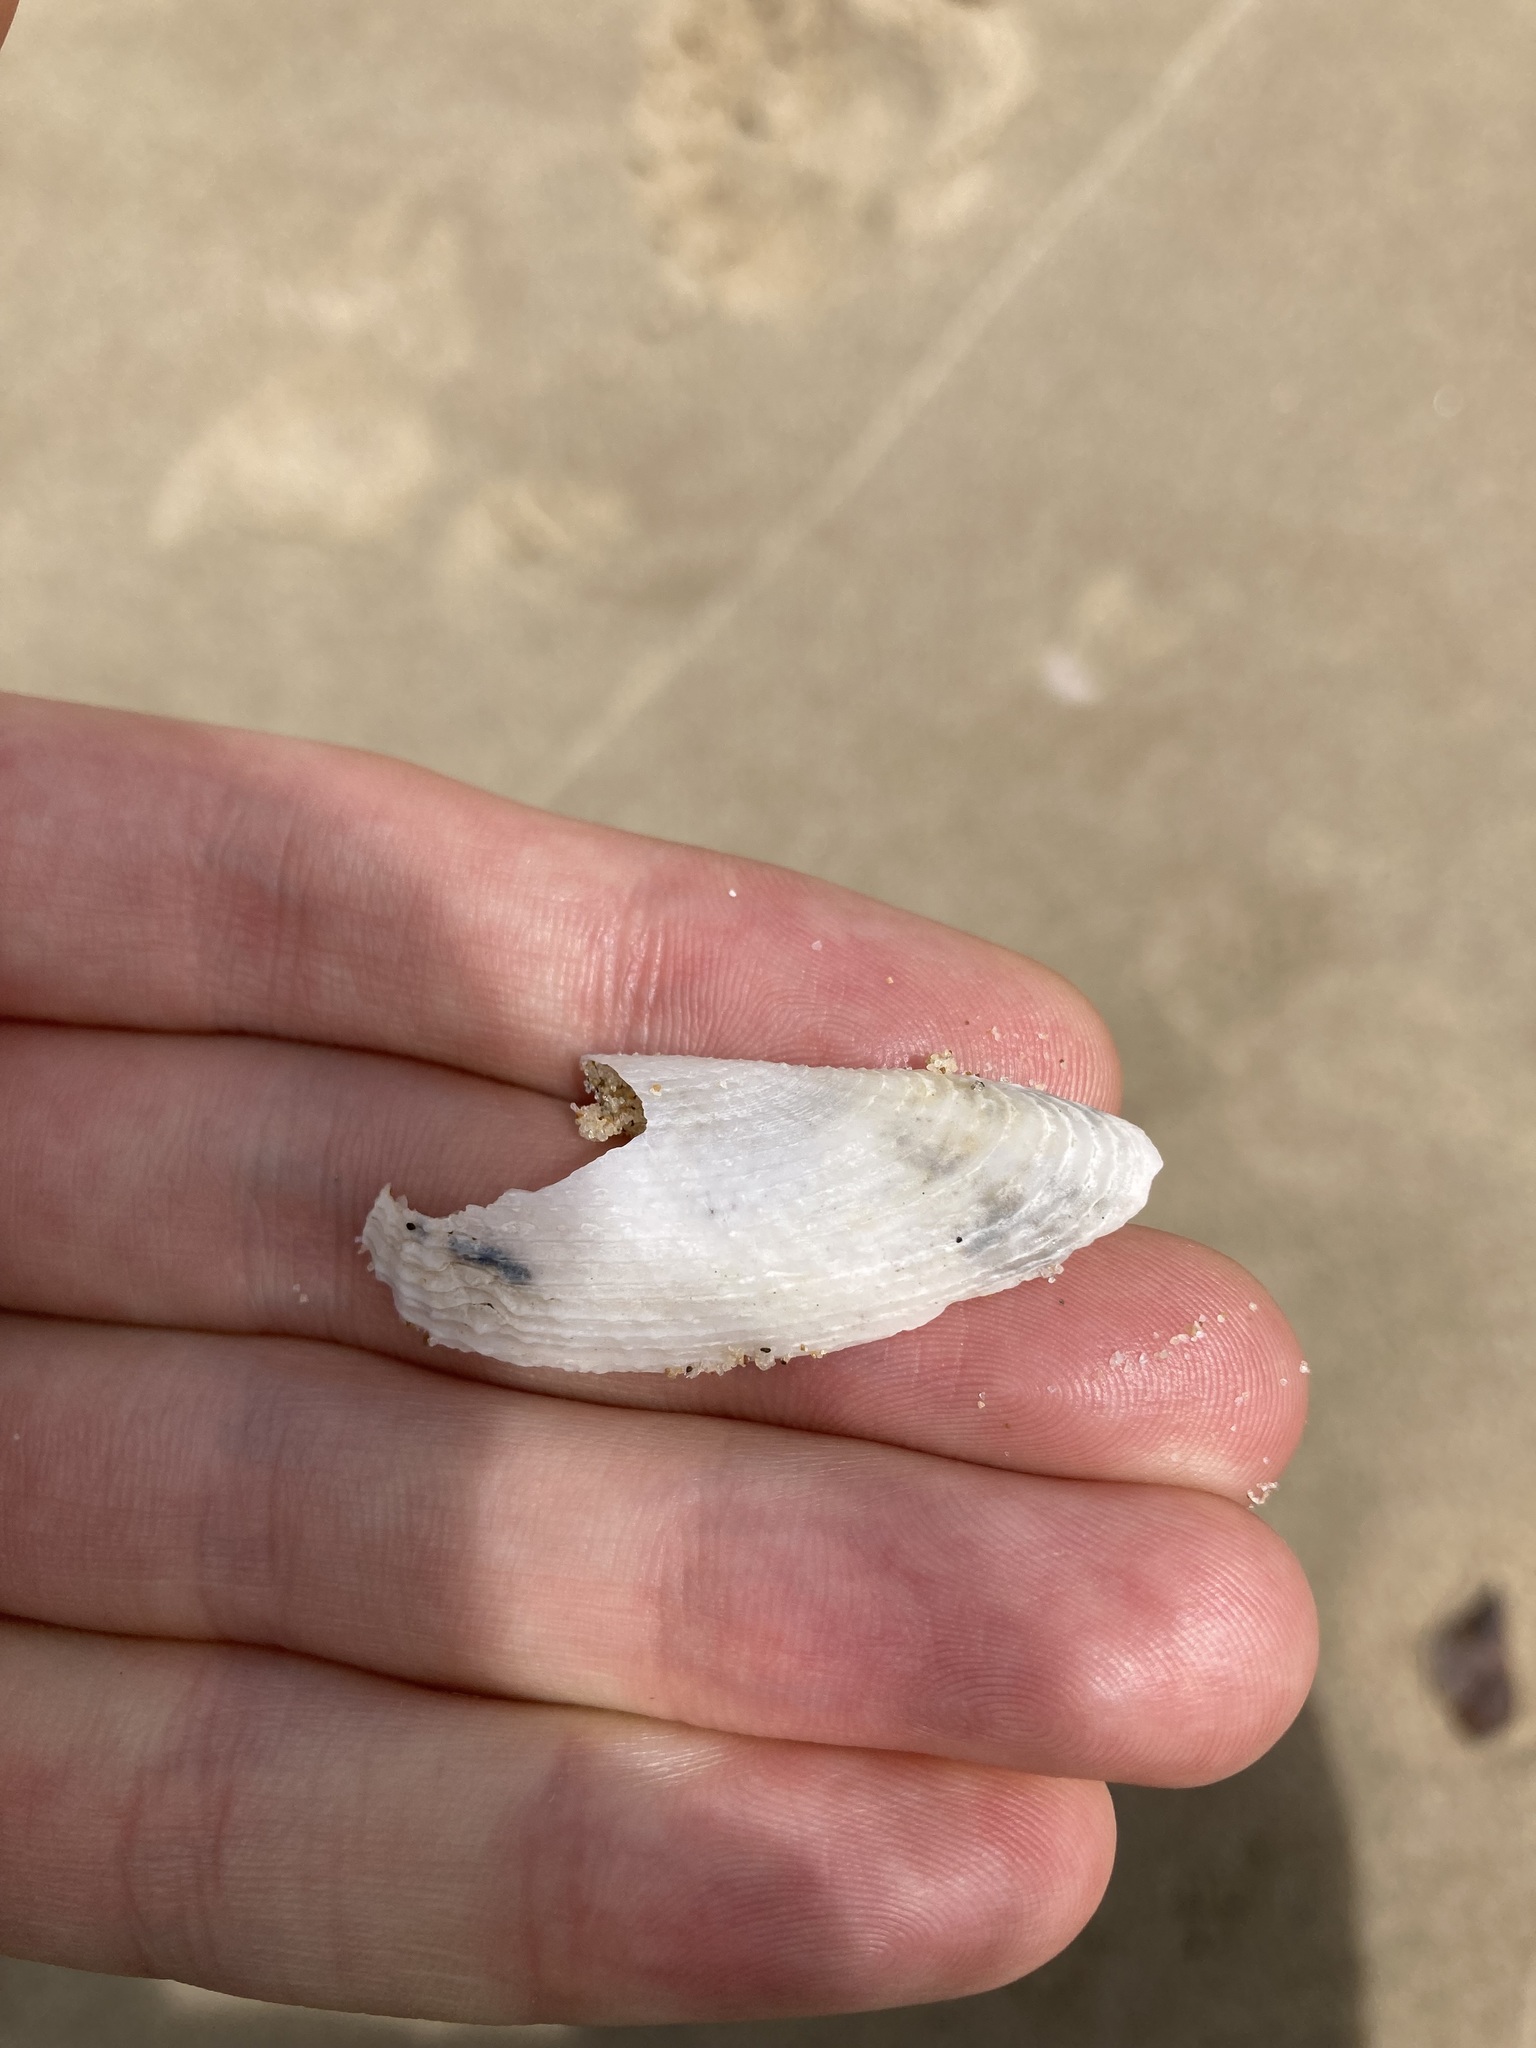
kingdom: Animalia
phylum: Mollusca
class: Bivalvia
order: Myida
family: Pholadidae
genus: Barnea
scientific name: Barnea australasiae
